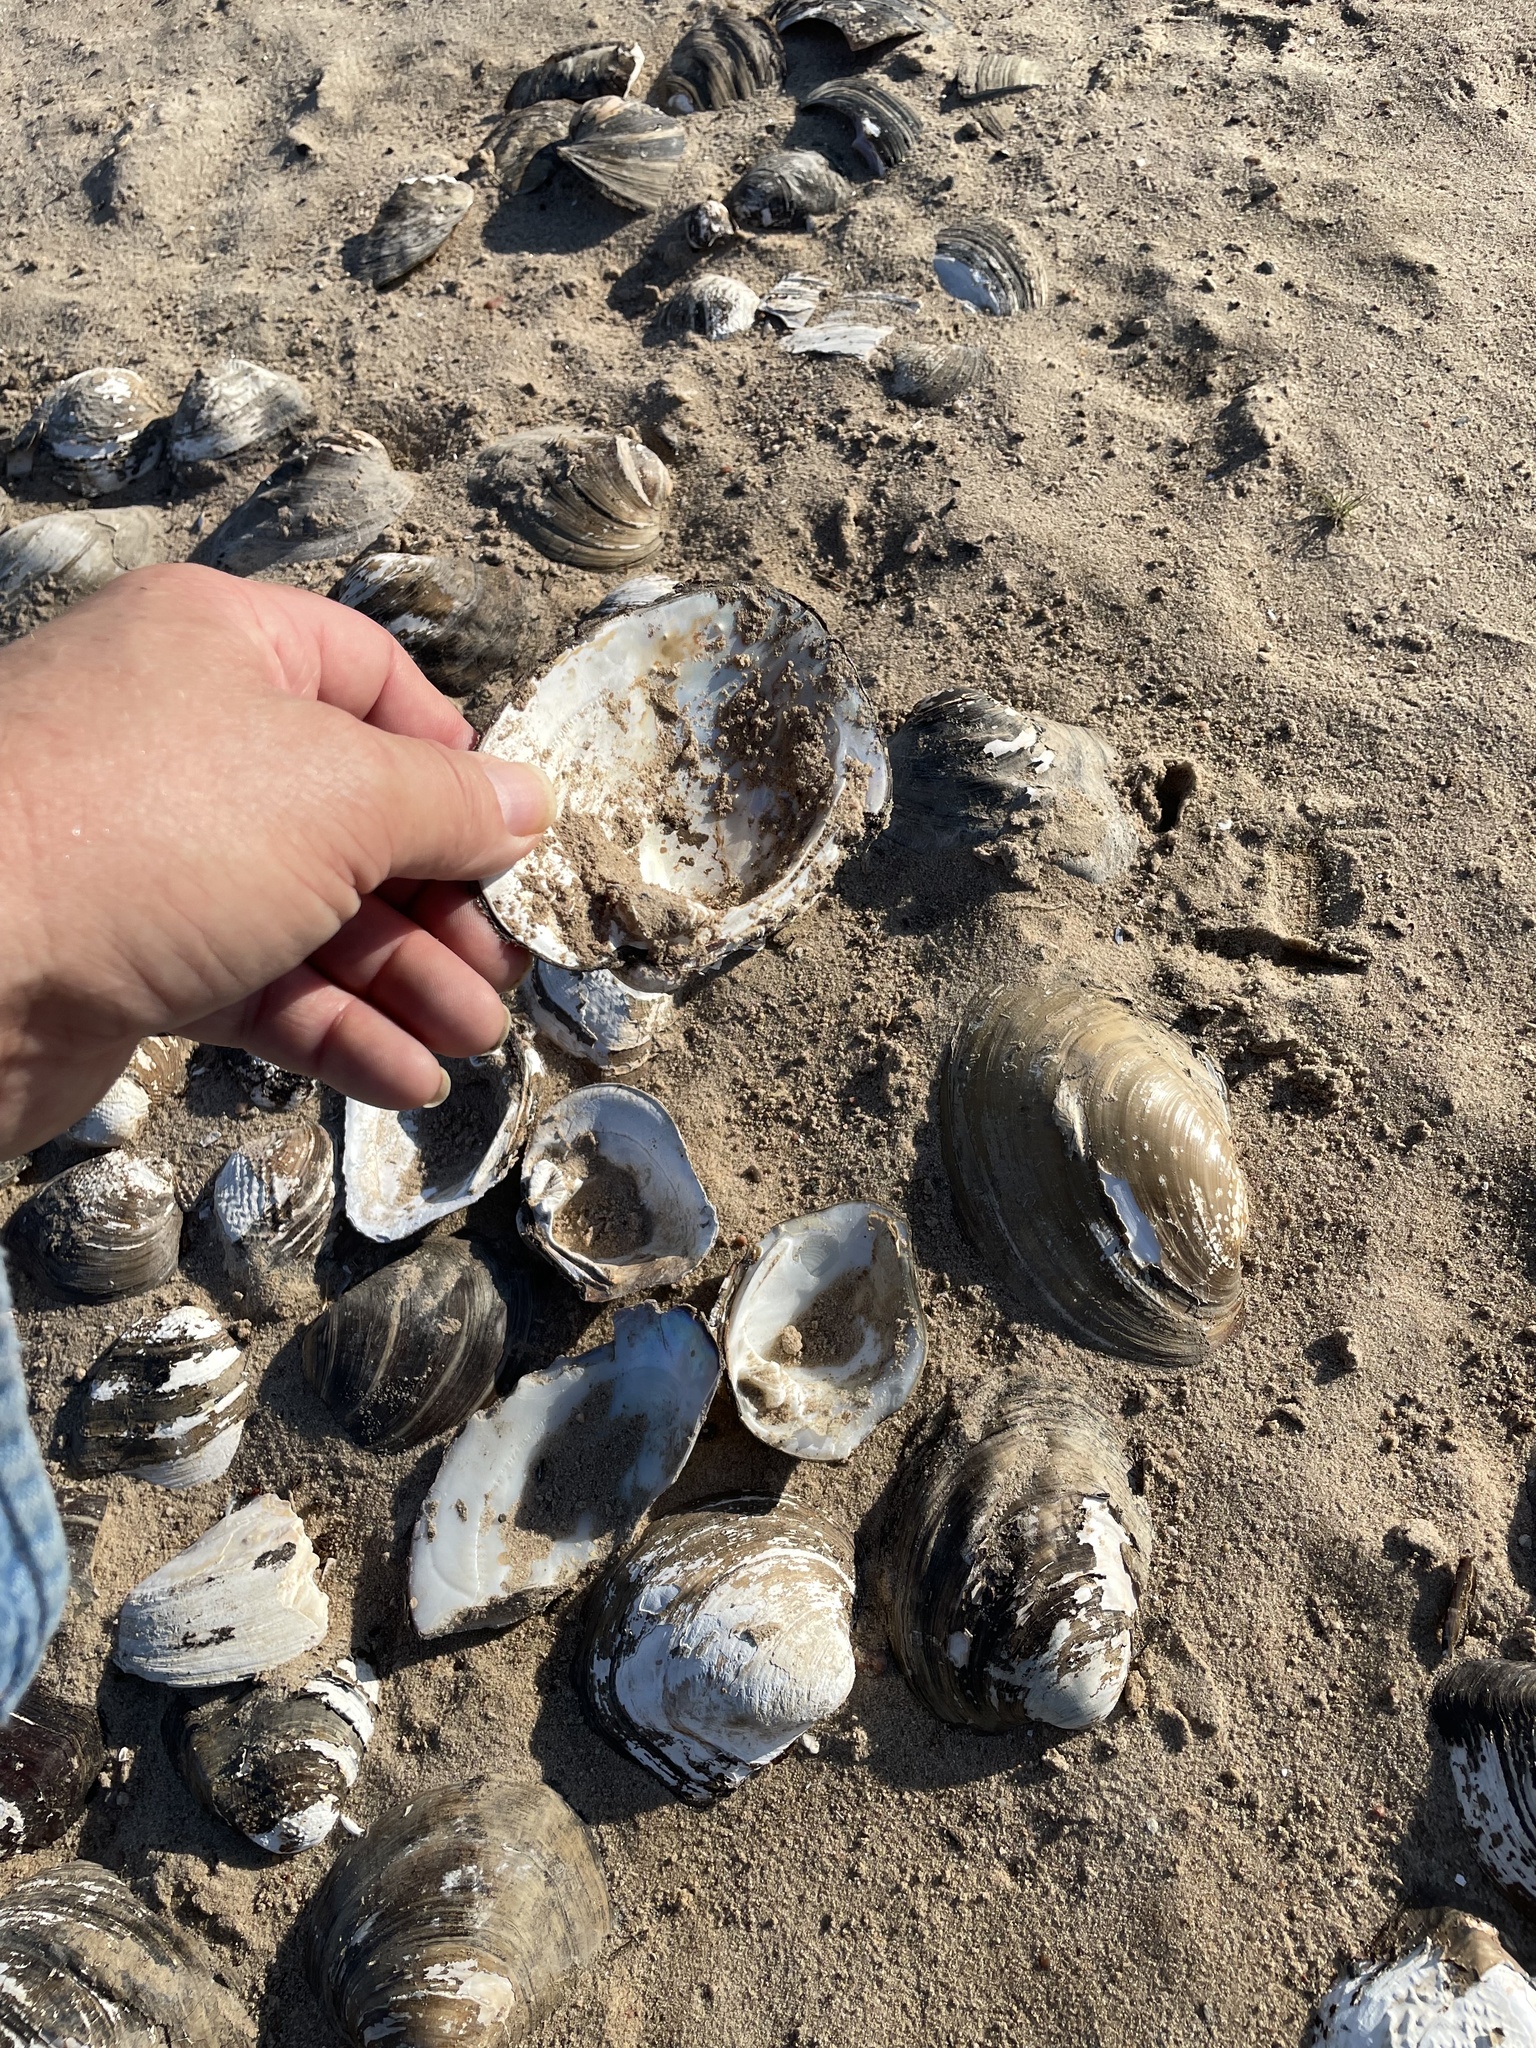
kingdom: Animalia
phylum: Mollusca
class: Bivalvia
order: Unionida
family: Unionidae
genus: Amblema
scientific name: Amblema plicata
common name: Threeridge
